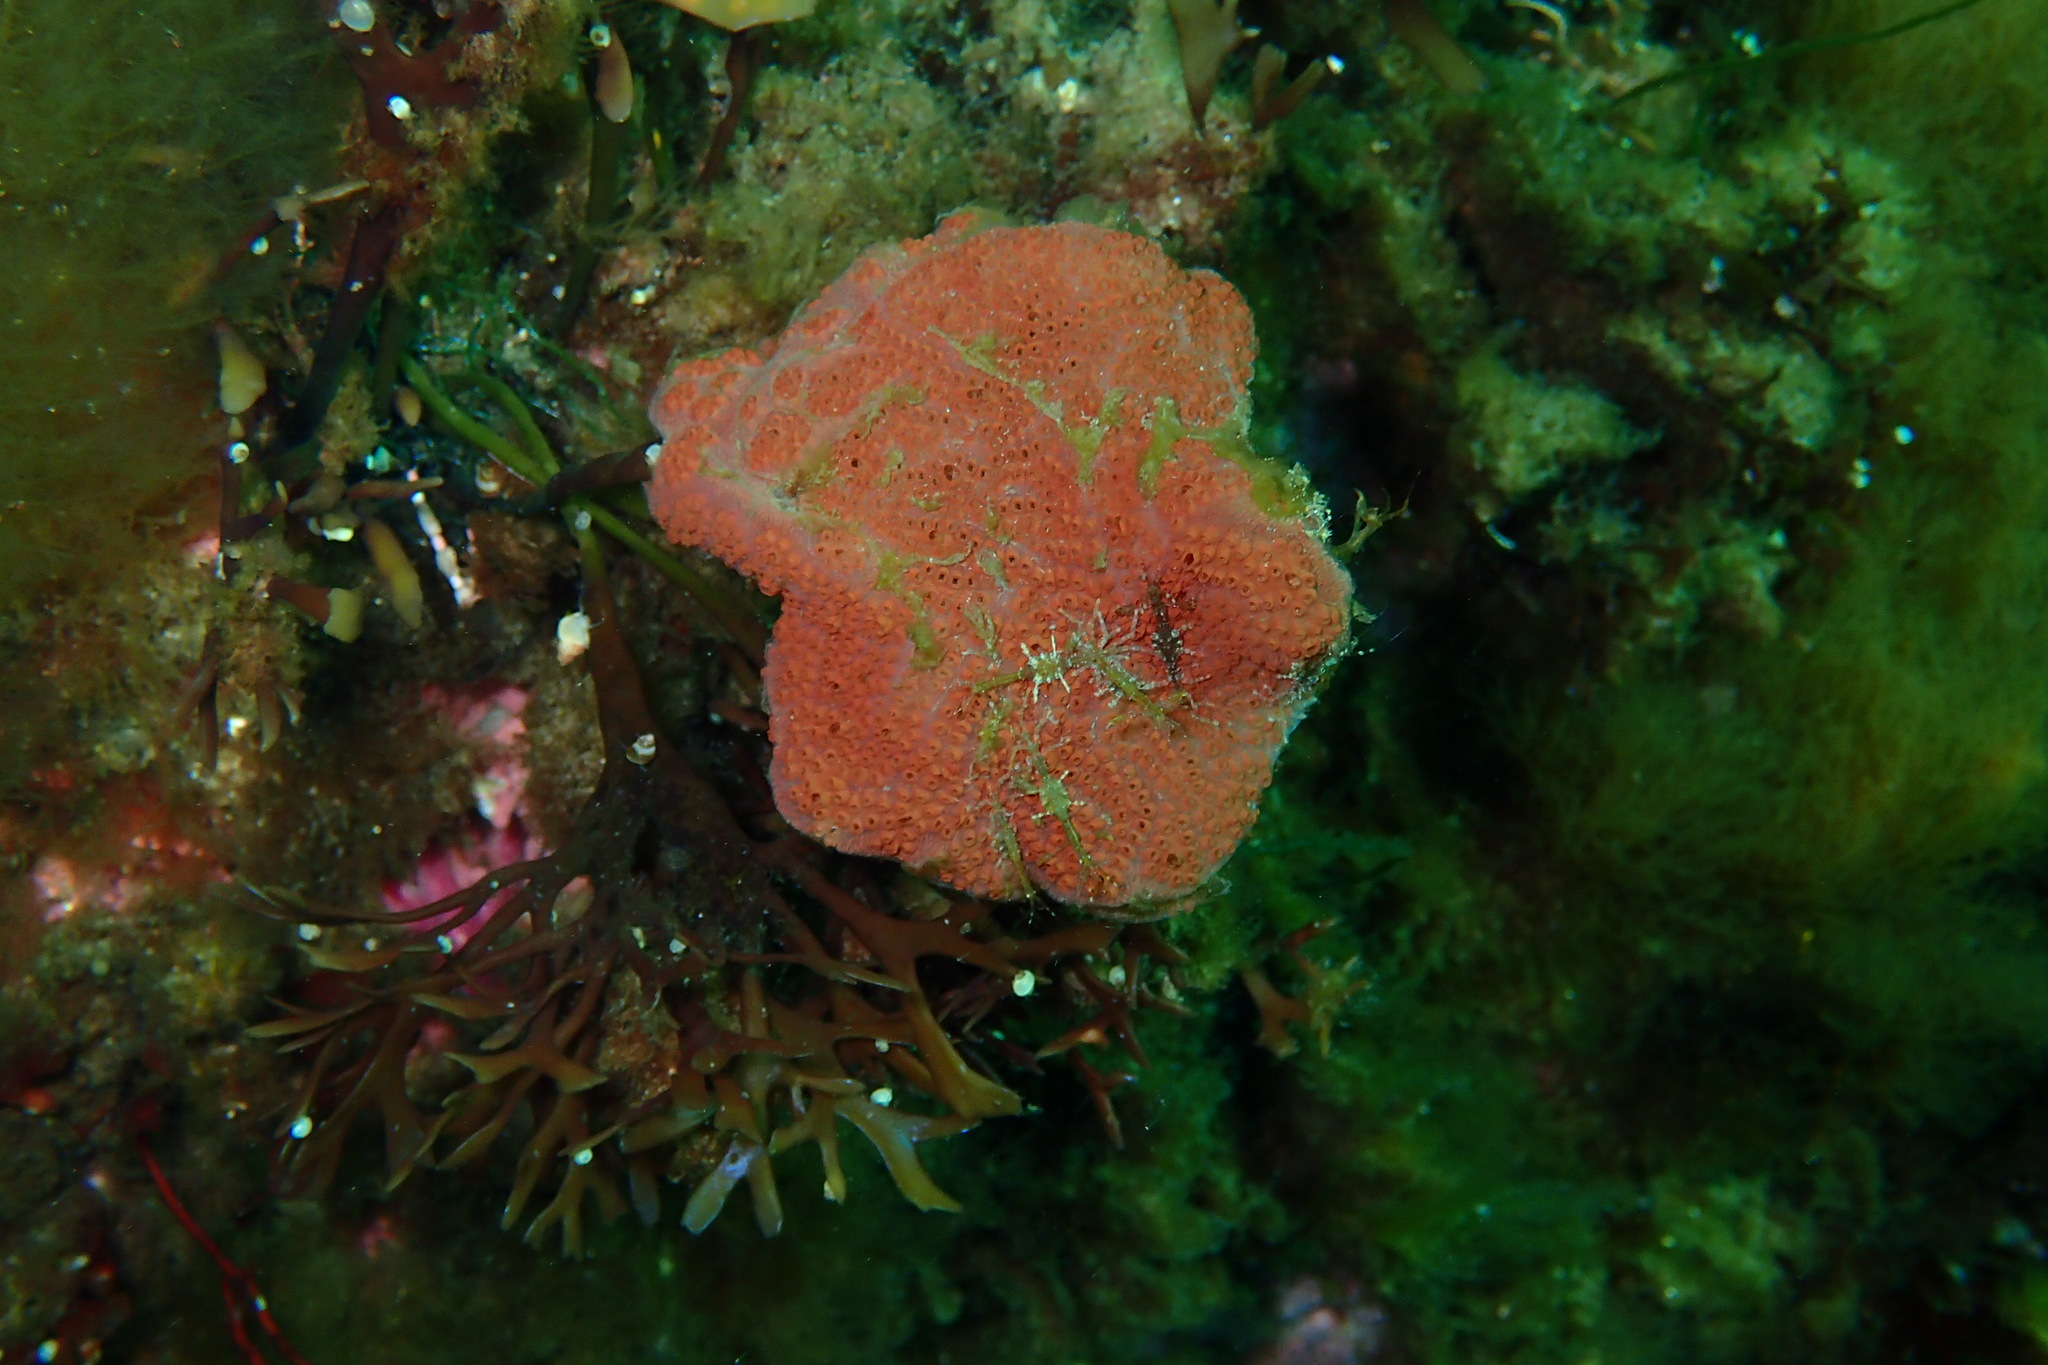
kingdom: Animalia
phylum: Chordata
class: Ascidiacea
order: Stolidobranchia
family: Styelidae
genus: Botrylloides
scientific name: Botrylloides violaceus
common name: Colonial sea squirt
